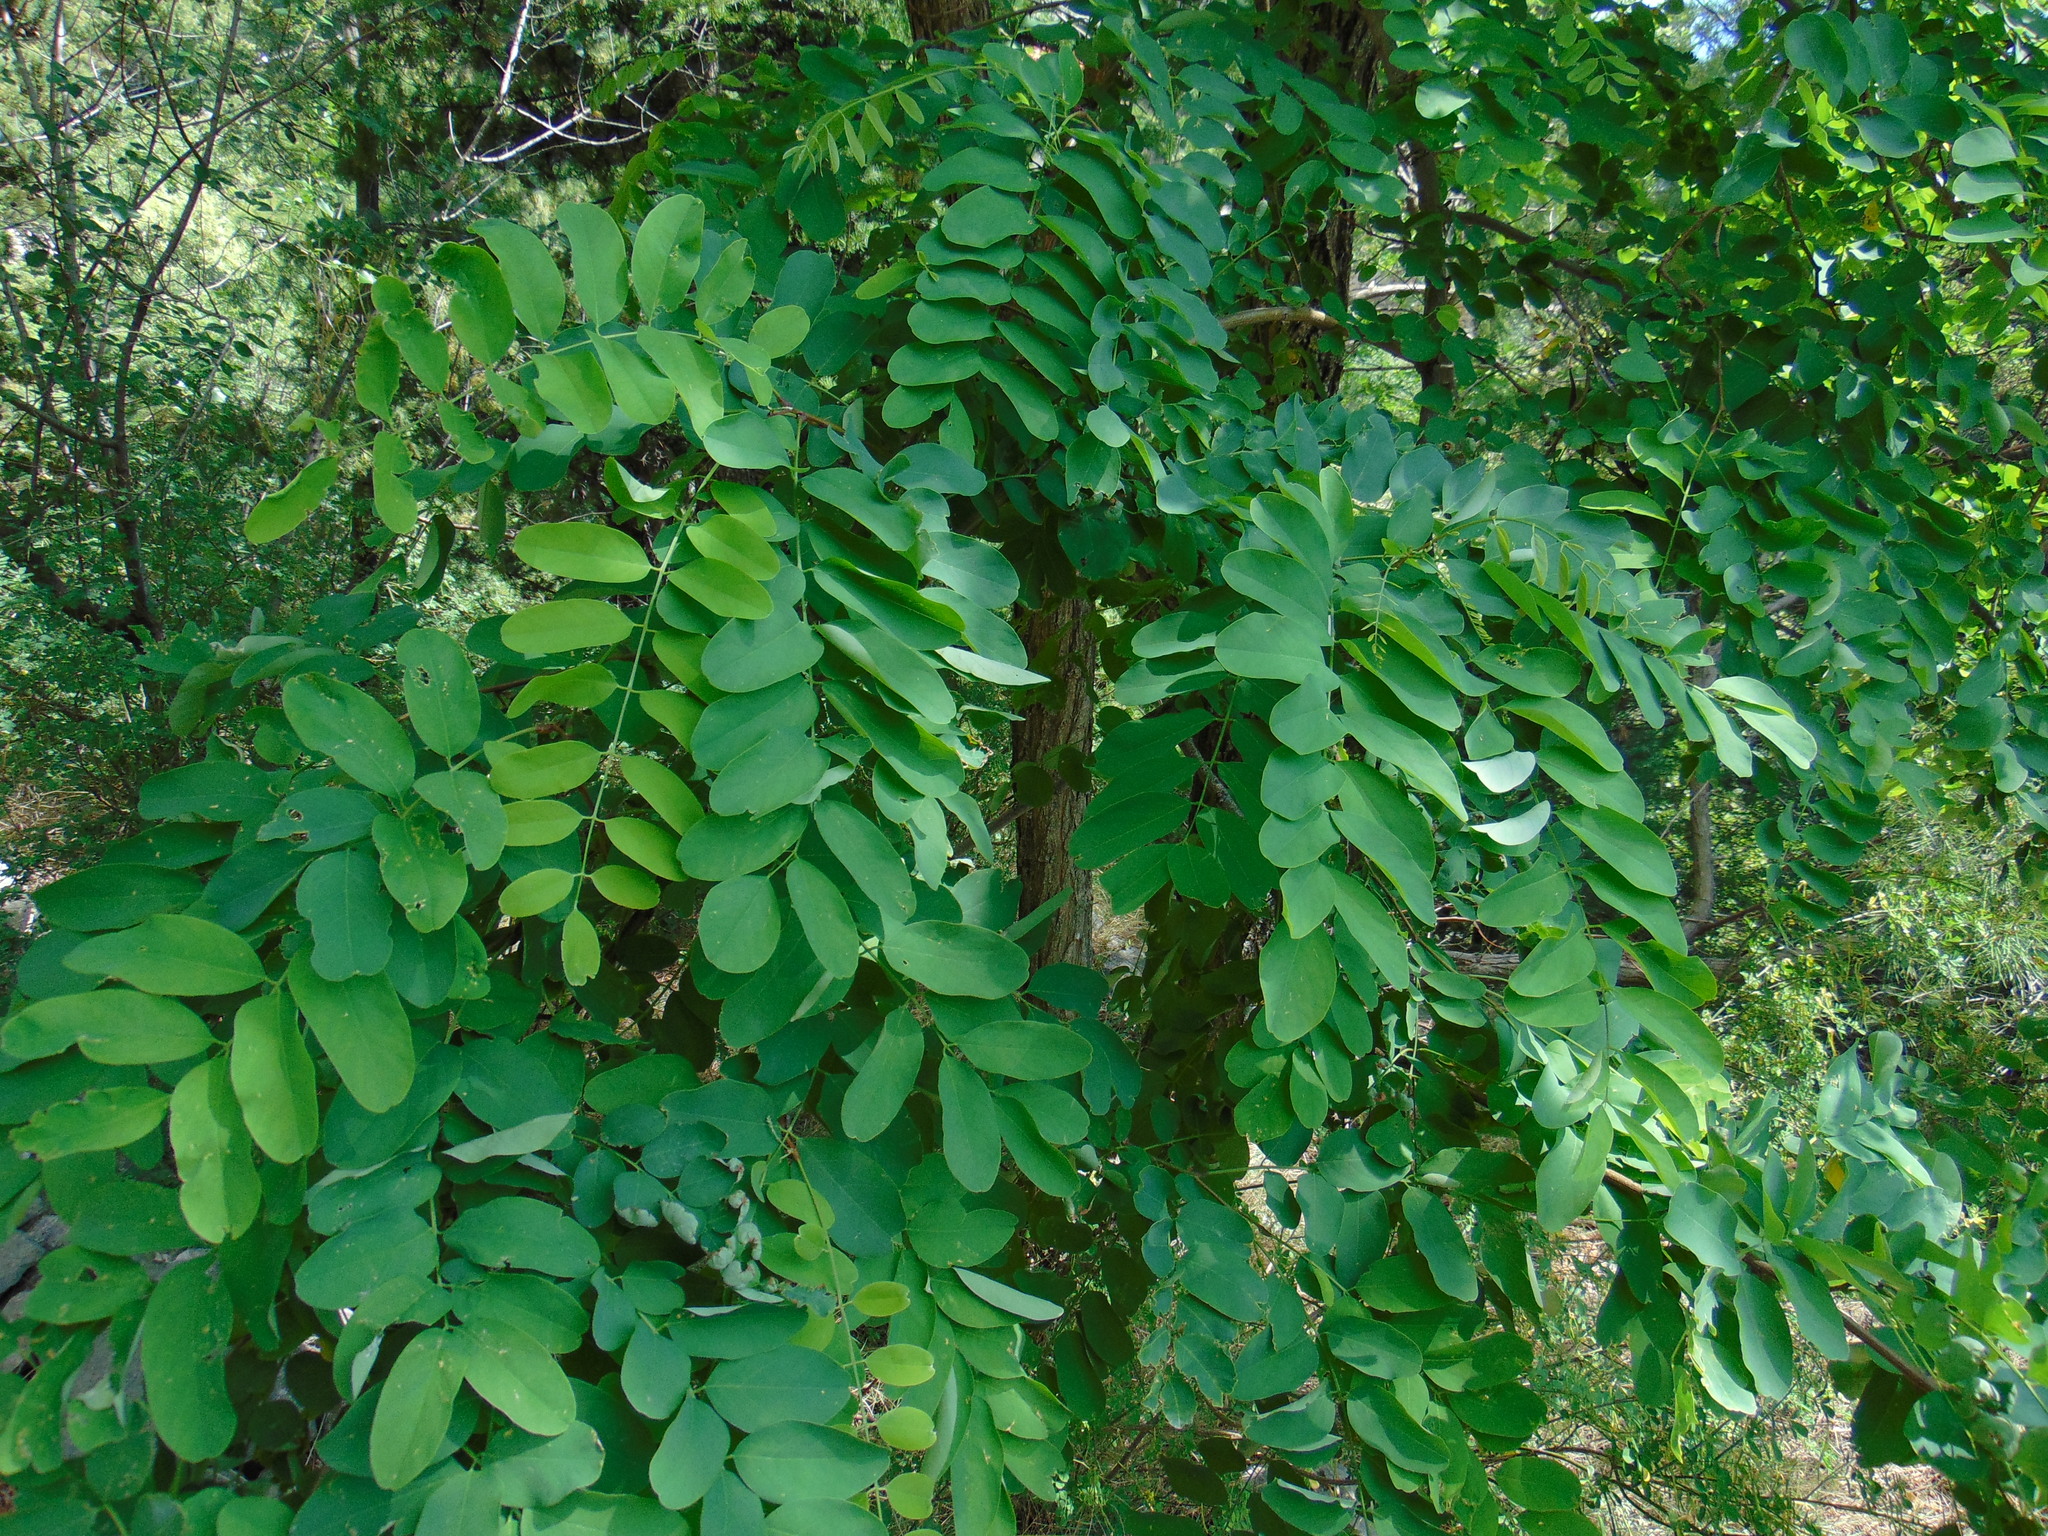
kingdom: Plantae
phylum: Tracheophyta
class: Magnoliopsida
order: Fabales
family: Fabaceae
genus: Robinia
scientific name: Robinia pseudoacacia
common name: Black locust
